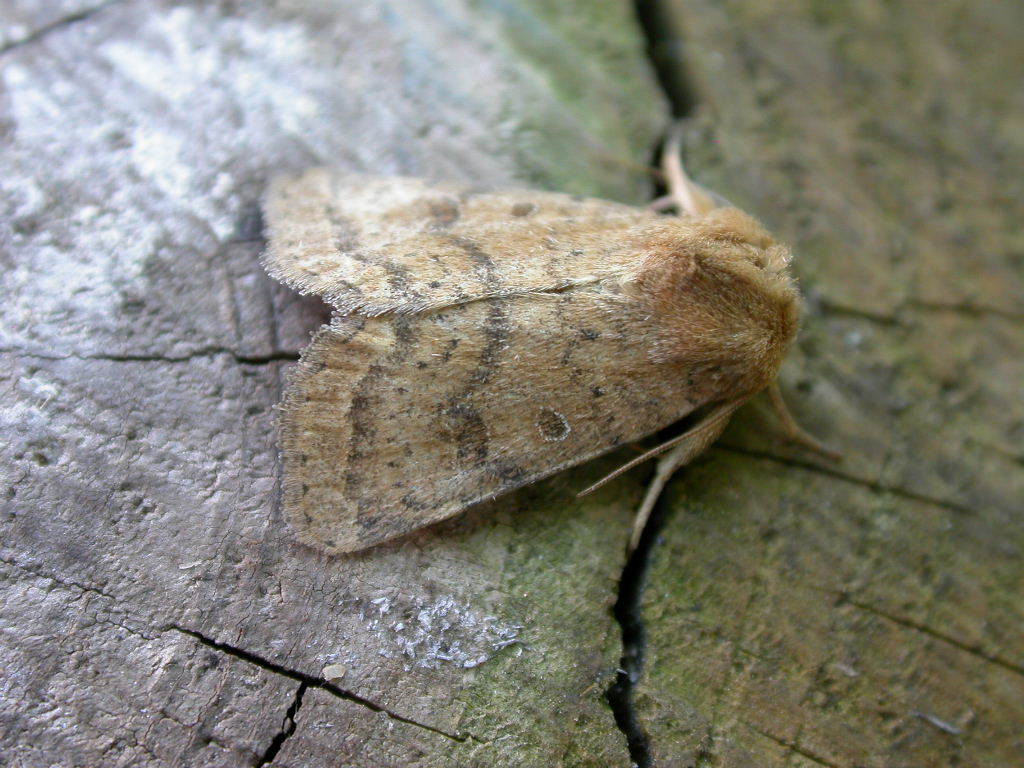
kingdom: Animalia
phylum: Arthropoda
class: Insecta
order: Lepidoptera
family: Noctuidae
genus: Hoplodrina
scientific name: Hoplodrina octogenaria
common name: Uncertain
